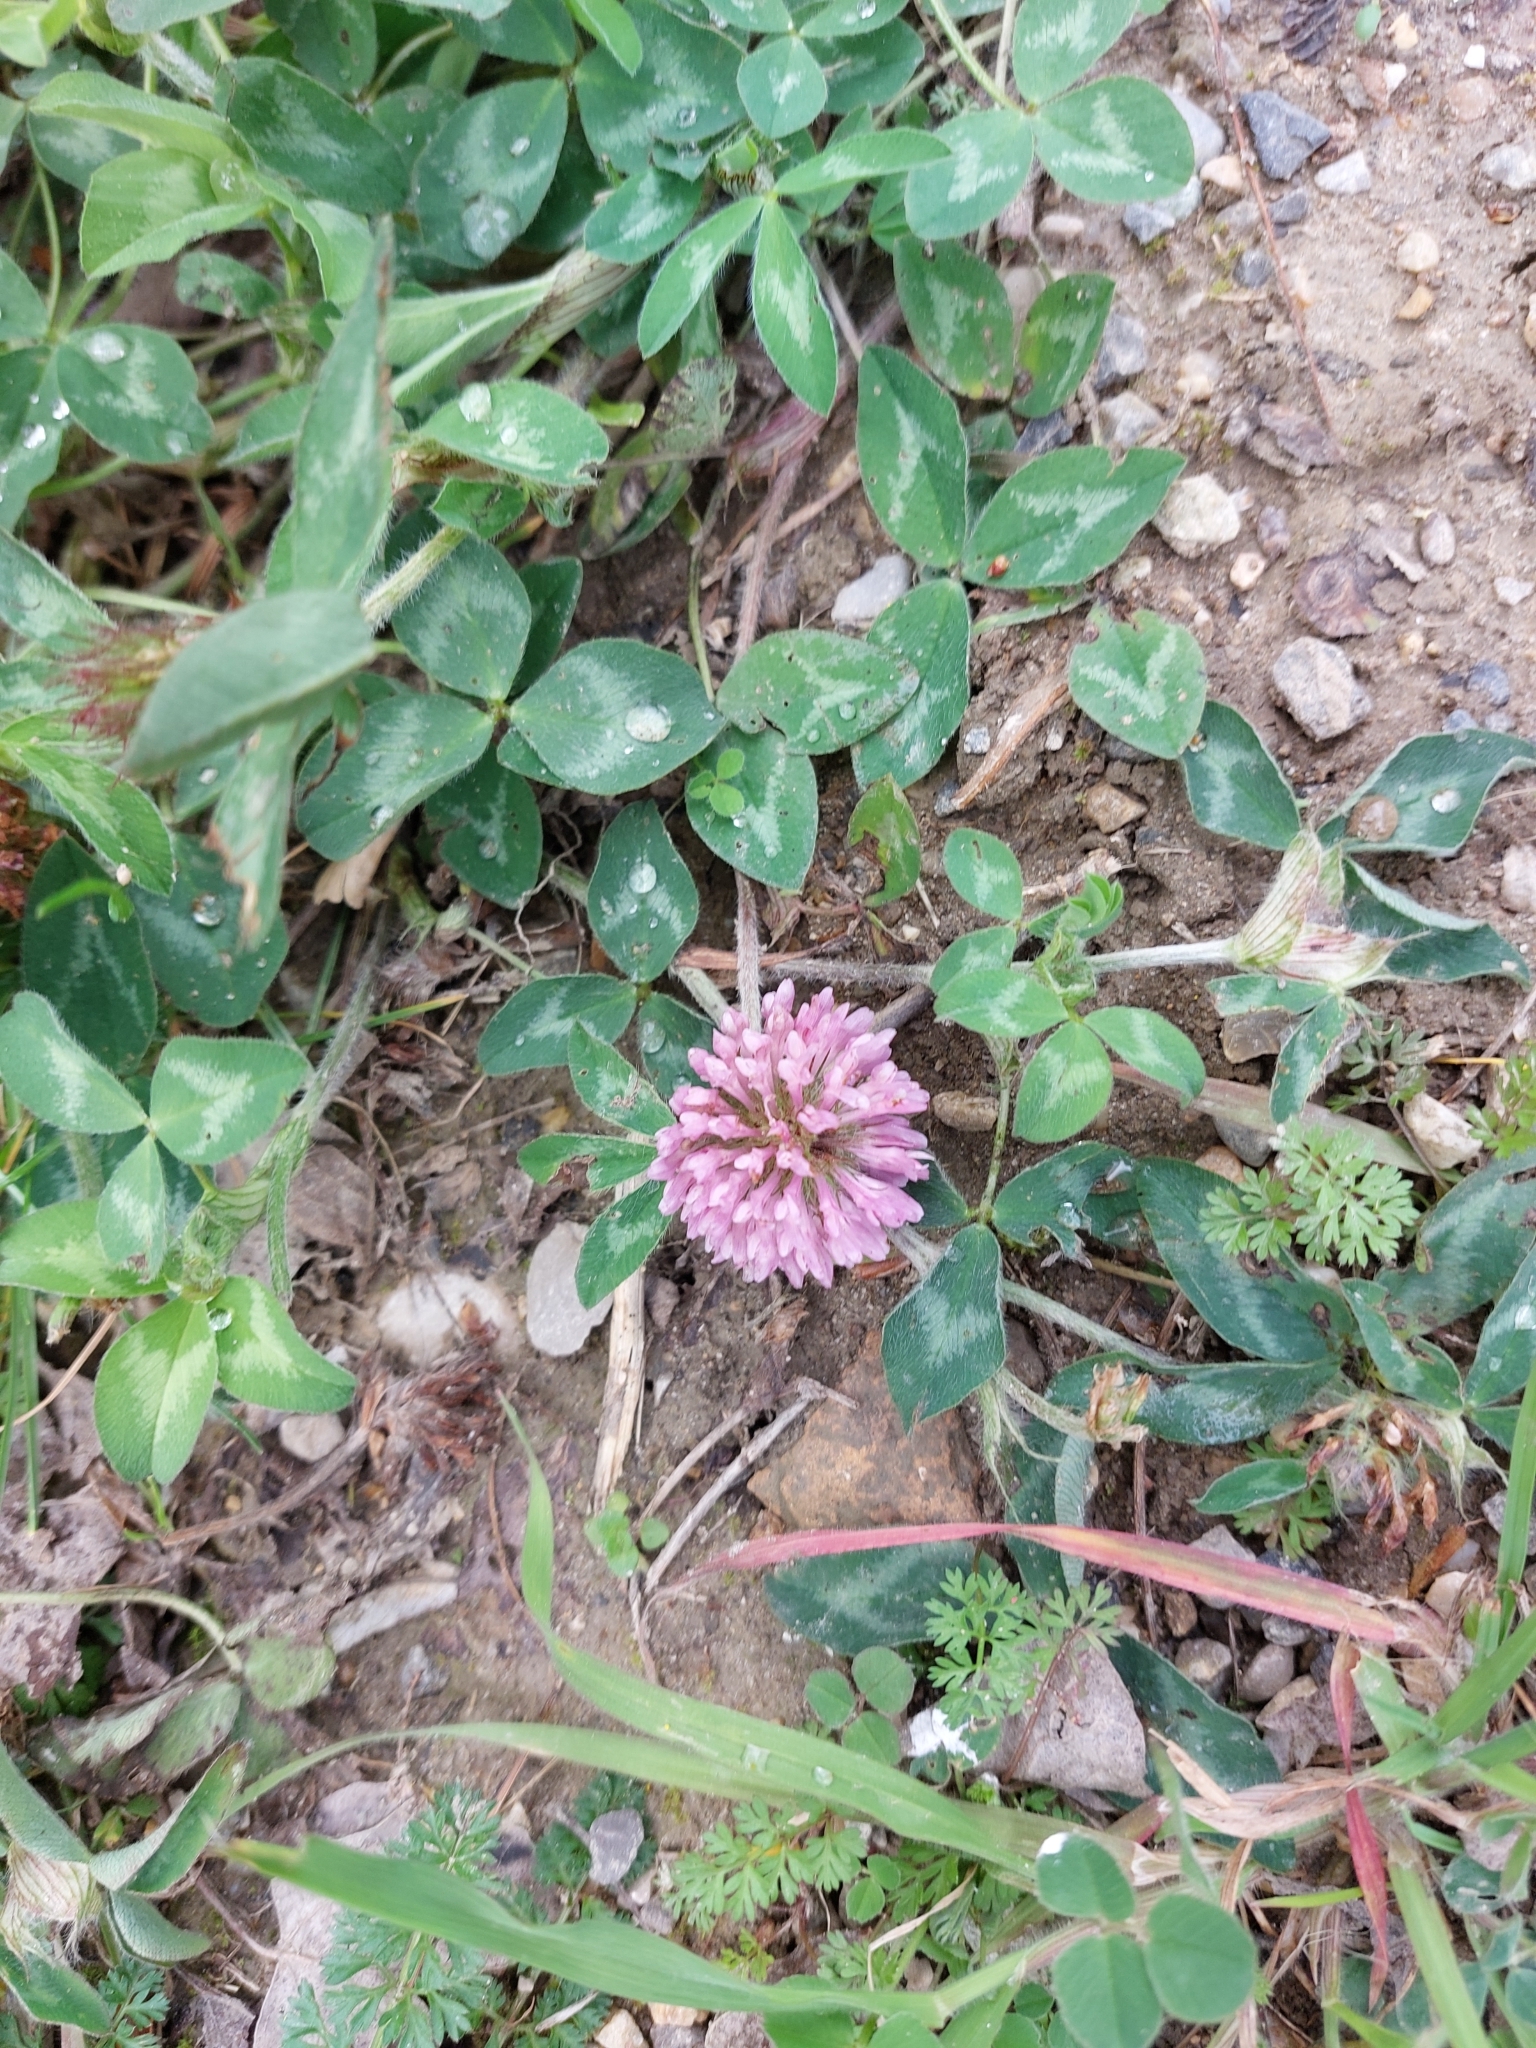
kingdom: Plantae
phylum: Tracheophyta
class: Magnoliopsida
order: Fabales
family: Fabaceae
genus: Trifolium
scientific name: Trifolium pratense
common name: Red clover
